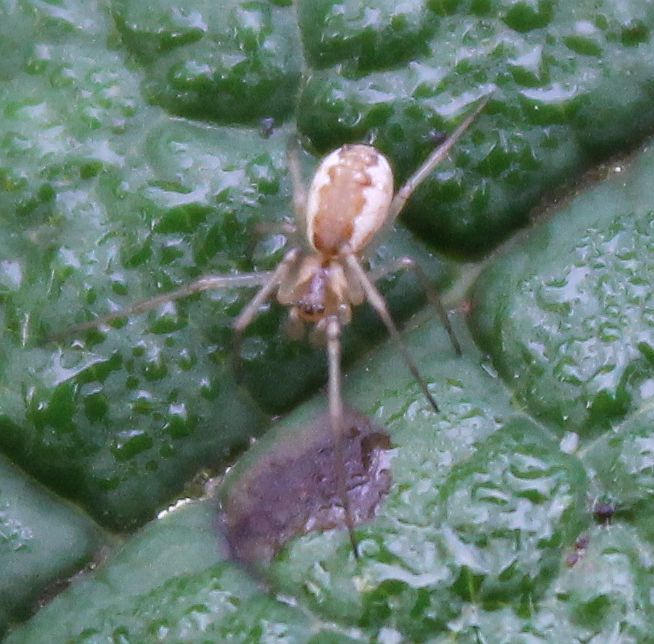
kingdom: Animalia
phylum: Arthropoda
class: Arachnida
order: Araneae
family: Linyphiidae
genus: Neriene
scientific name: Neriene peltata
